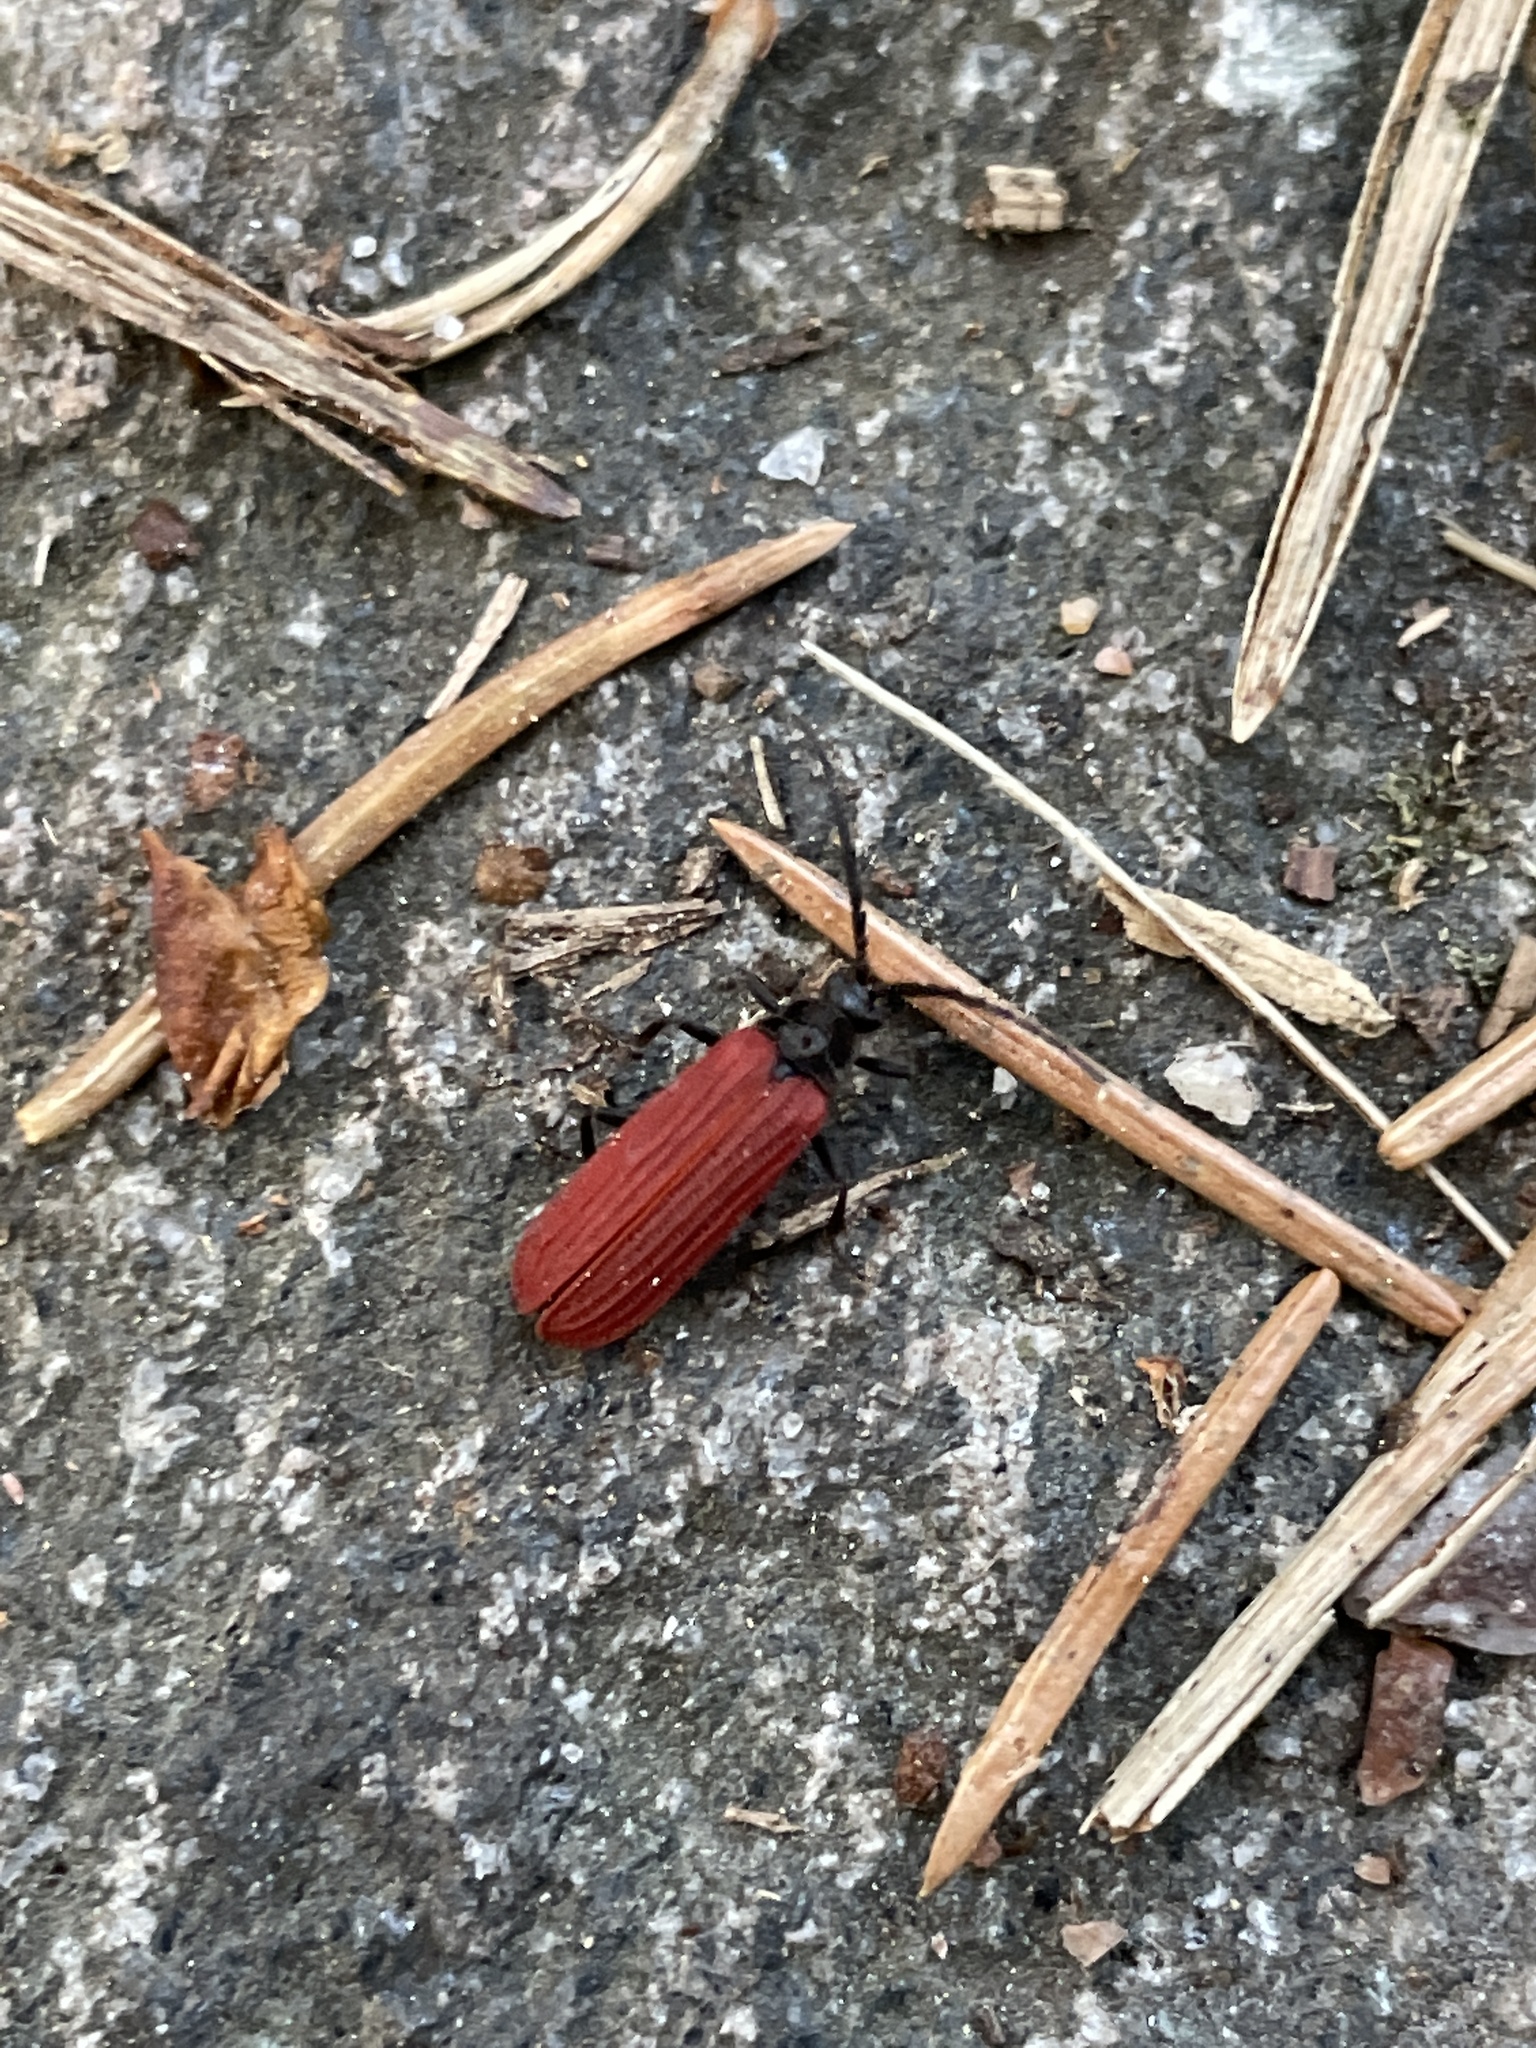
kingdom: Animalia
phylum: Arthropoda
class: Insecta
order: Coleoptera
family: Lycidae
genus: Pyropterus
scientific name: Pyropterus nigroruber
